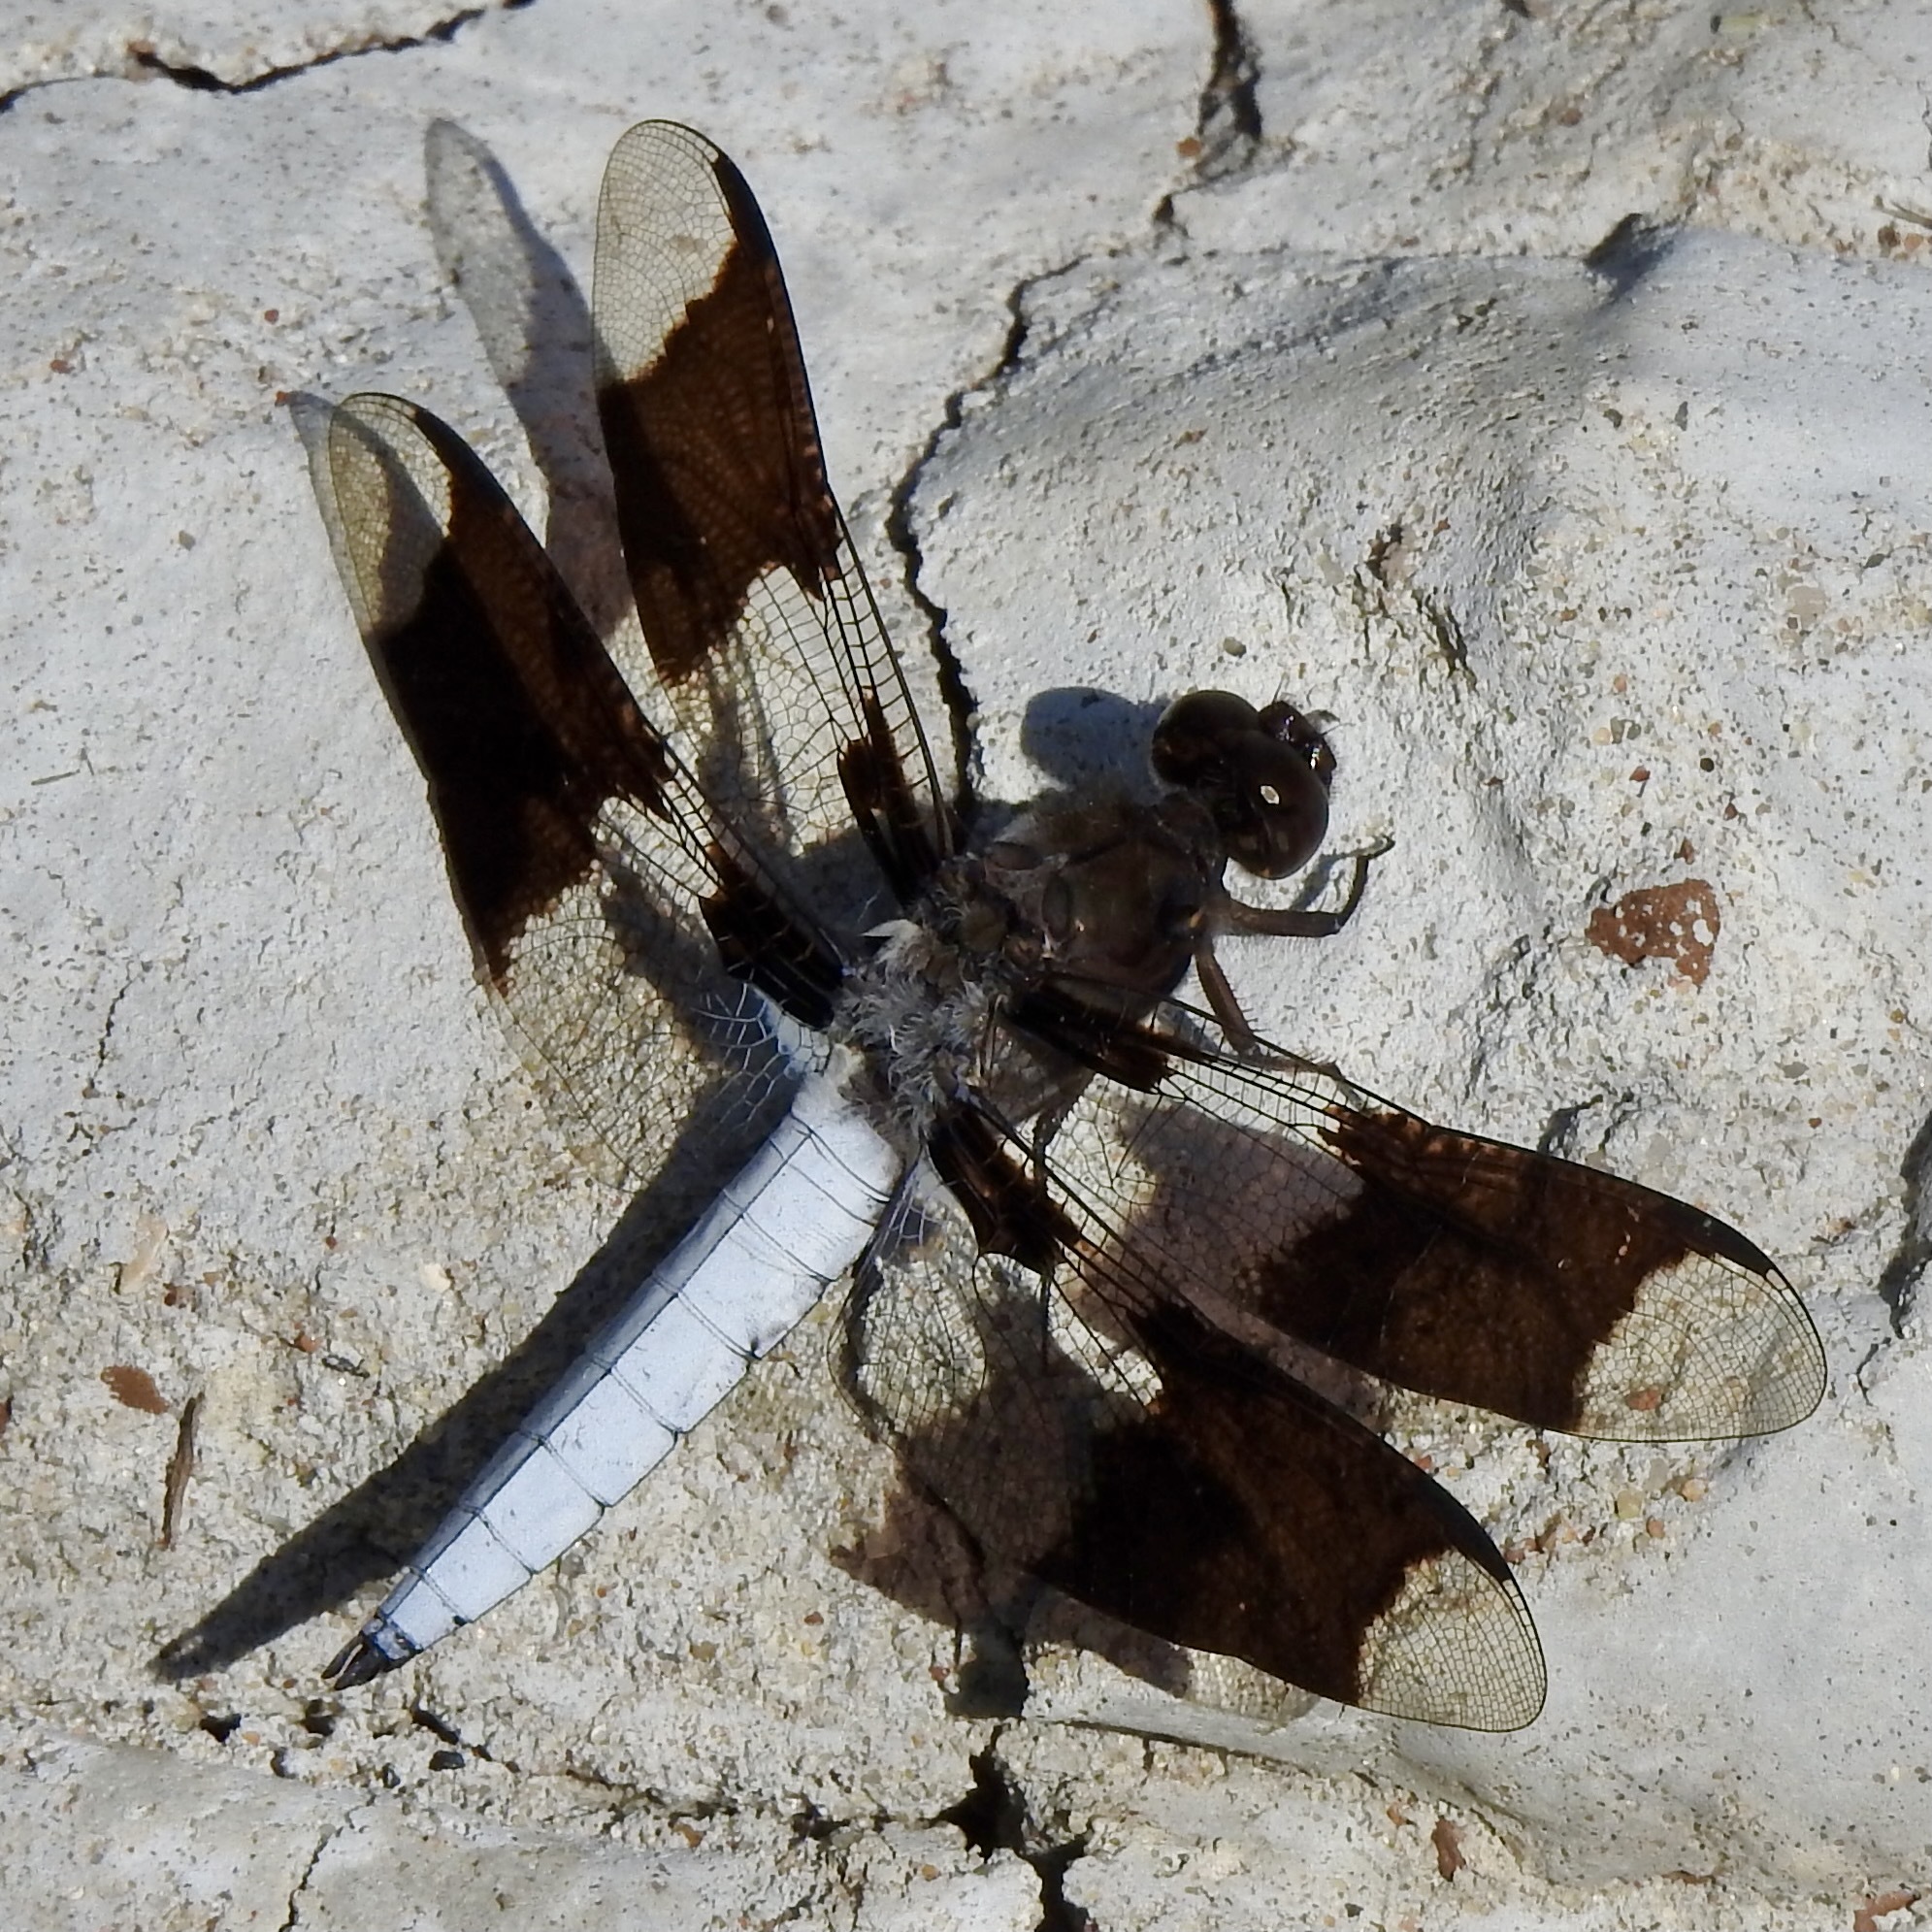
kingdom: Animalia
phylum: Arthropoda
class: Insecta
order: Odonata
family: Libellulidae
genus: Plathemis
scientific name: Plathemis lydia
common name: Common whitetail
